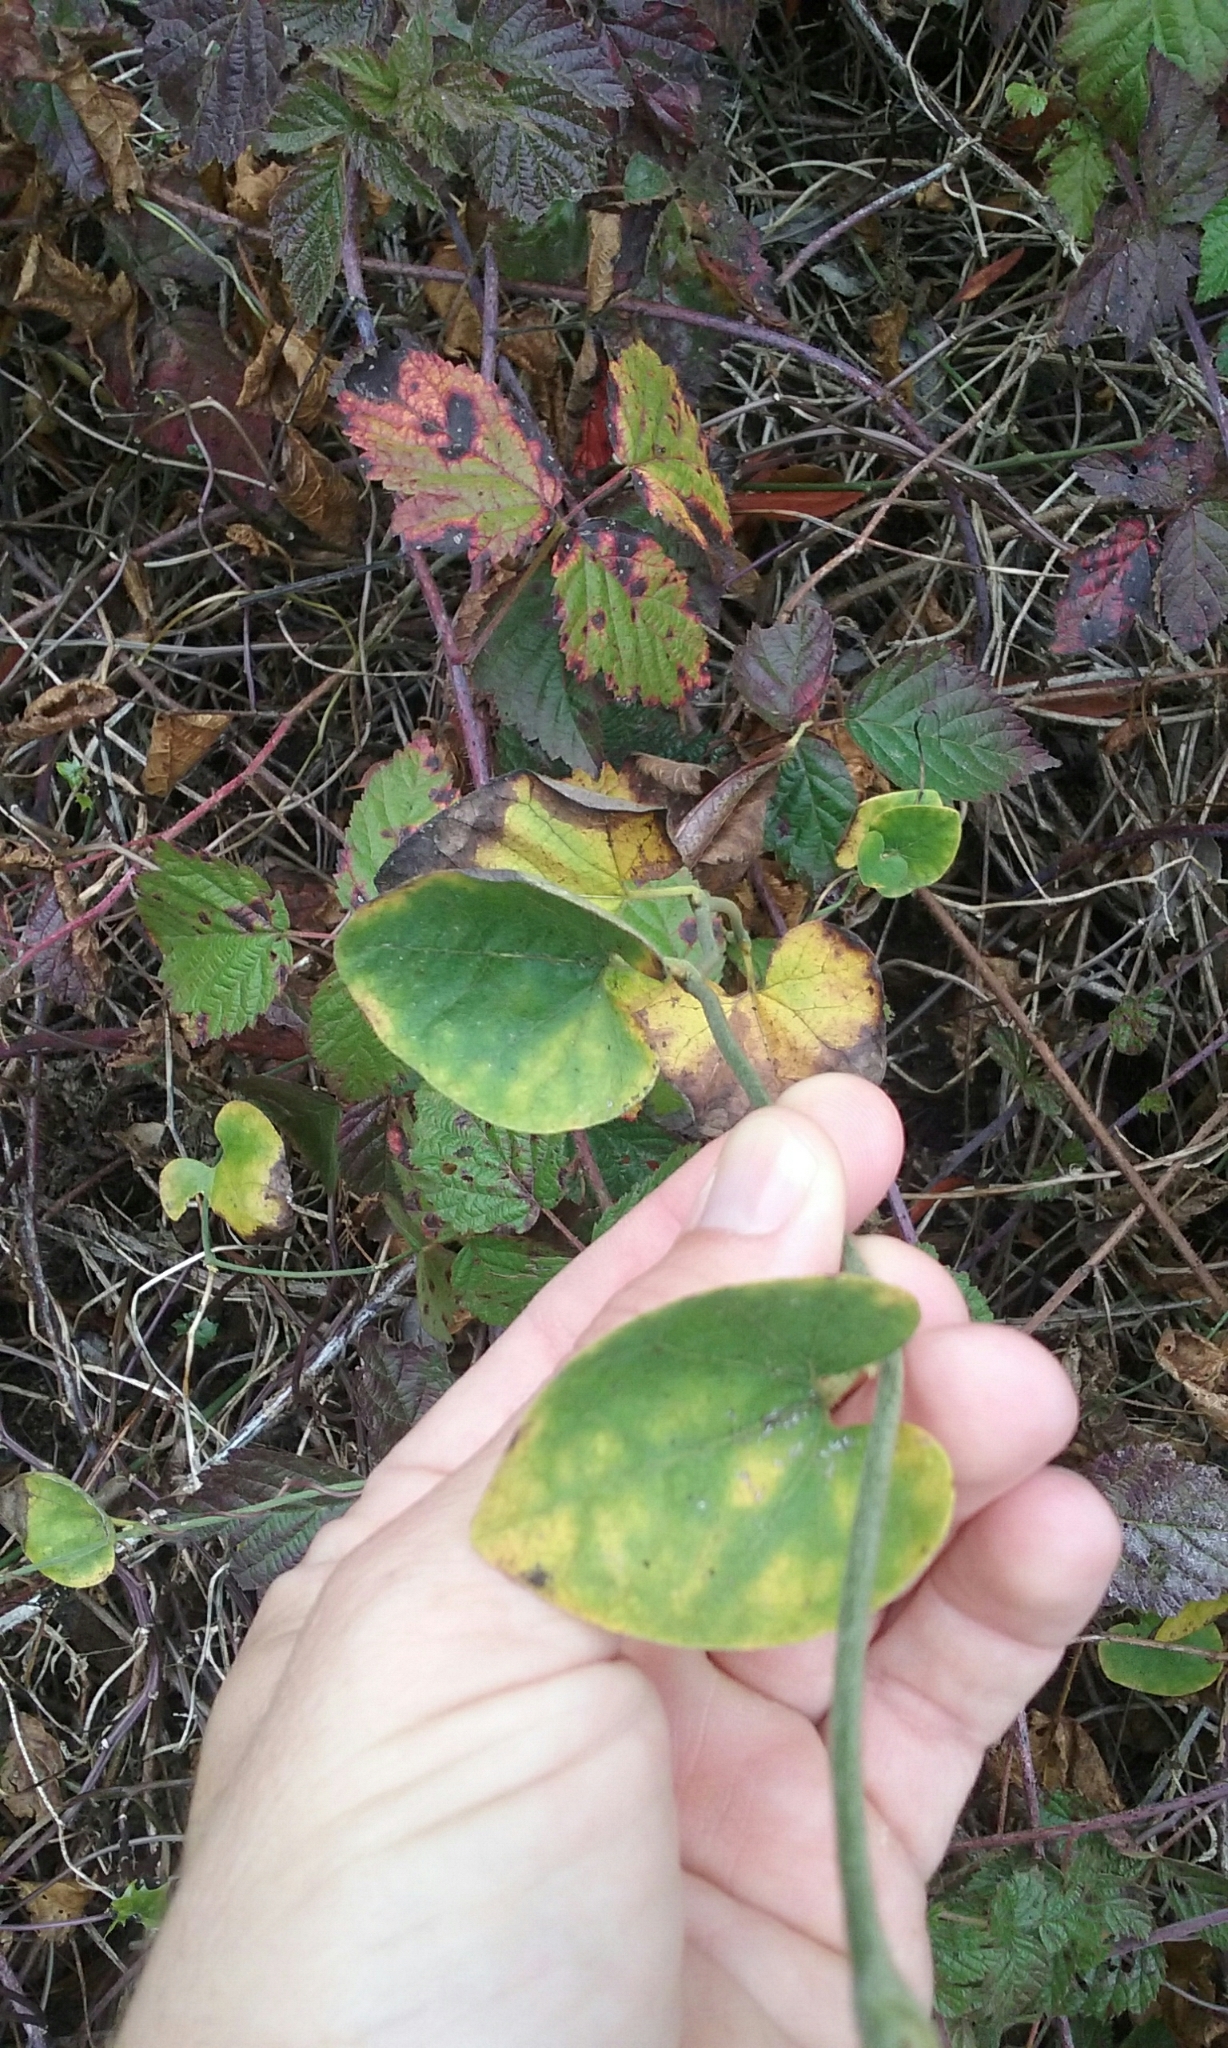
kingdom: Plantae
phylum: Tracheophyta
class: Magnoliopsida
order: Piperales
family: Aristolochiaceae
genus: Isotrema
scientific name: Isotrema californicum
